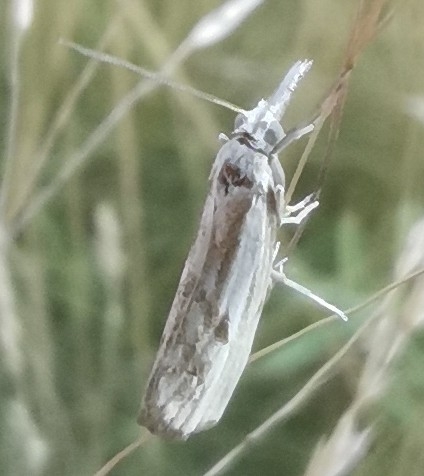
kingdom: Animalia
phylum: Arthropoda
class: Insecta
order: Lepidoptera
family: Crambidae
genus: Agriphila
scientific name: Agriphila inquinatella
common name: Barred grass-veneer
